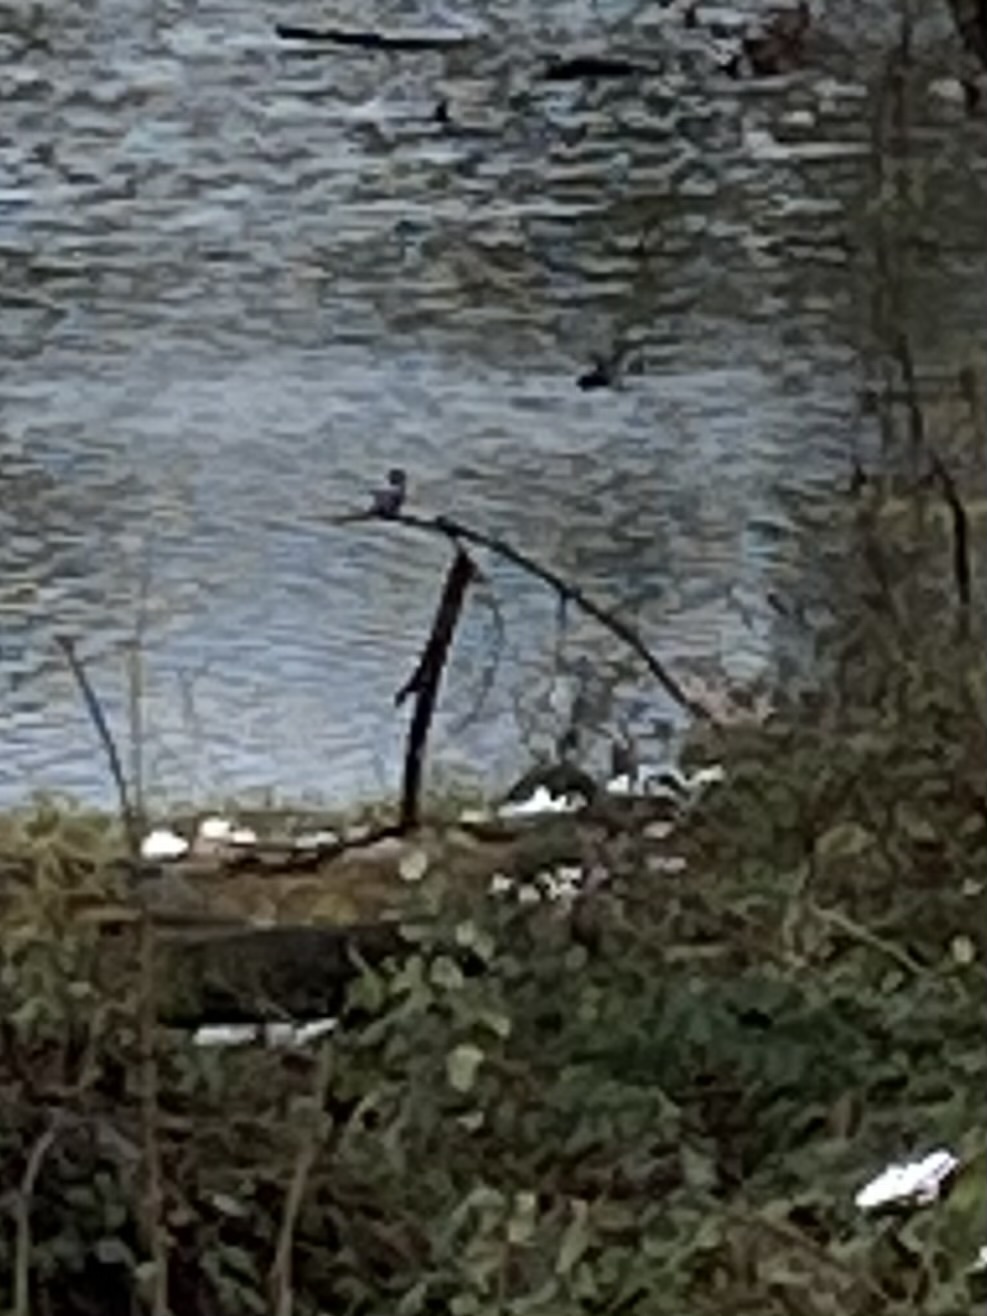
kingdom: Animalia
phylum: Chordata
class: Aves
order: Coraciiformes
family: Alcedinidae
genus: Megaceryle
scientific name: Megaceryle alcyon
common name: Belted kingfisher
